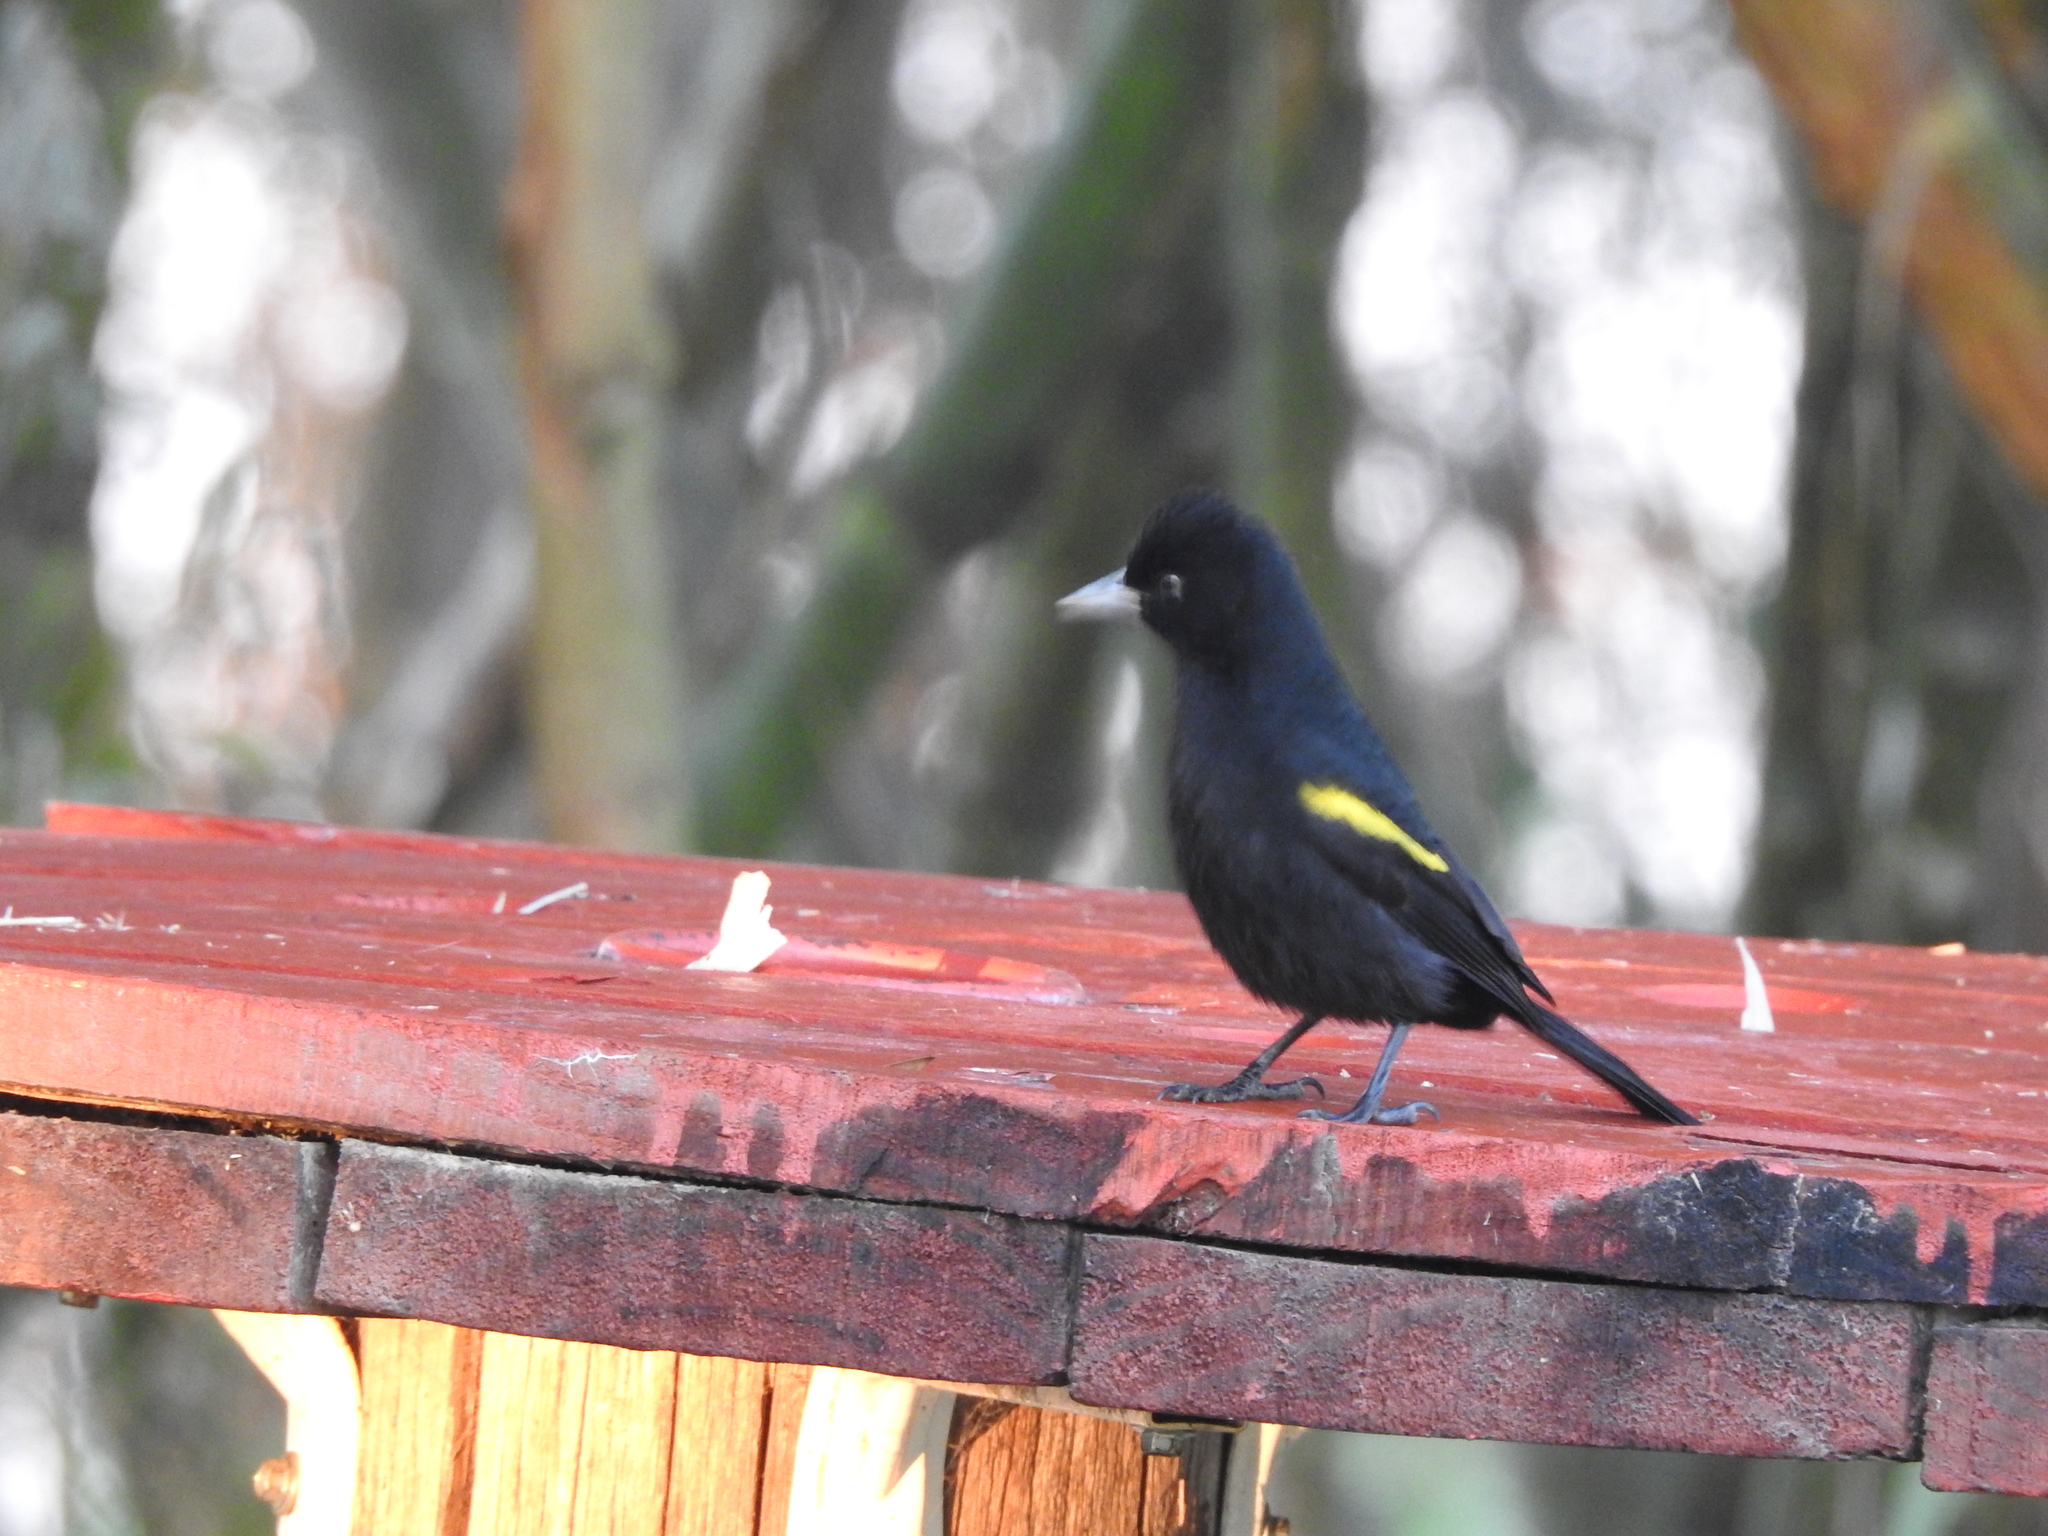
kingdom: Animalia
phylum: Chordata
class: Aves
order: Passeriformes
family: Icteridae
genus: Cacicus
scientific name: Cacicus chrysopterus
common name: Golden-winged cacique
